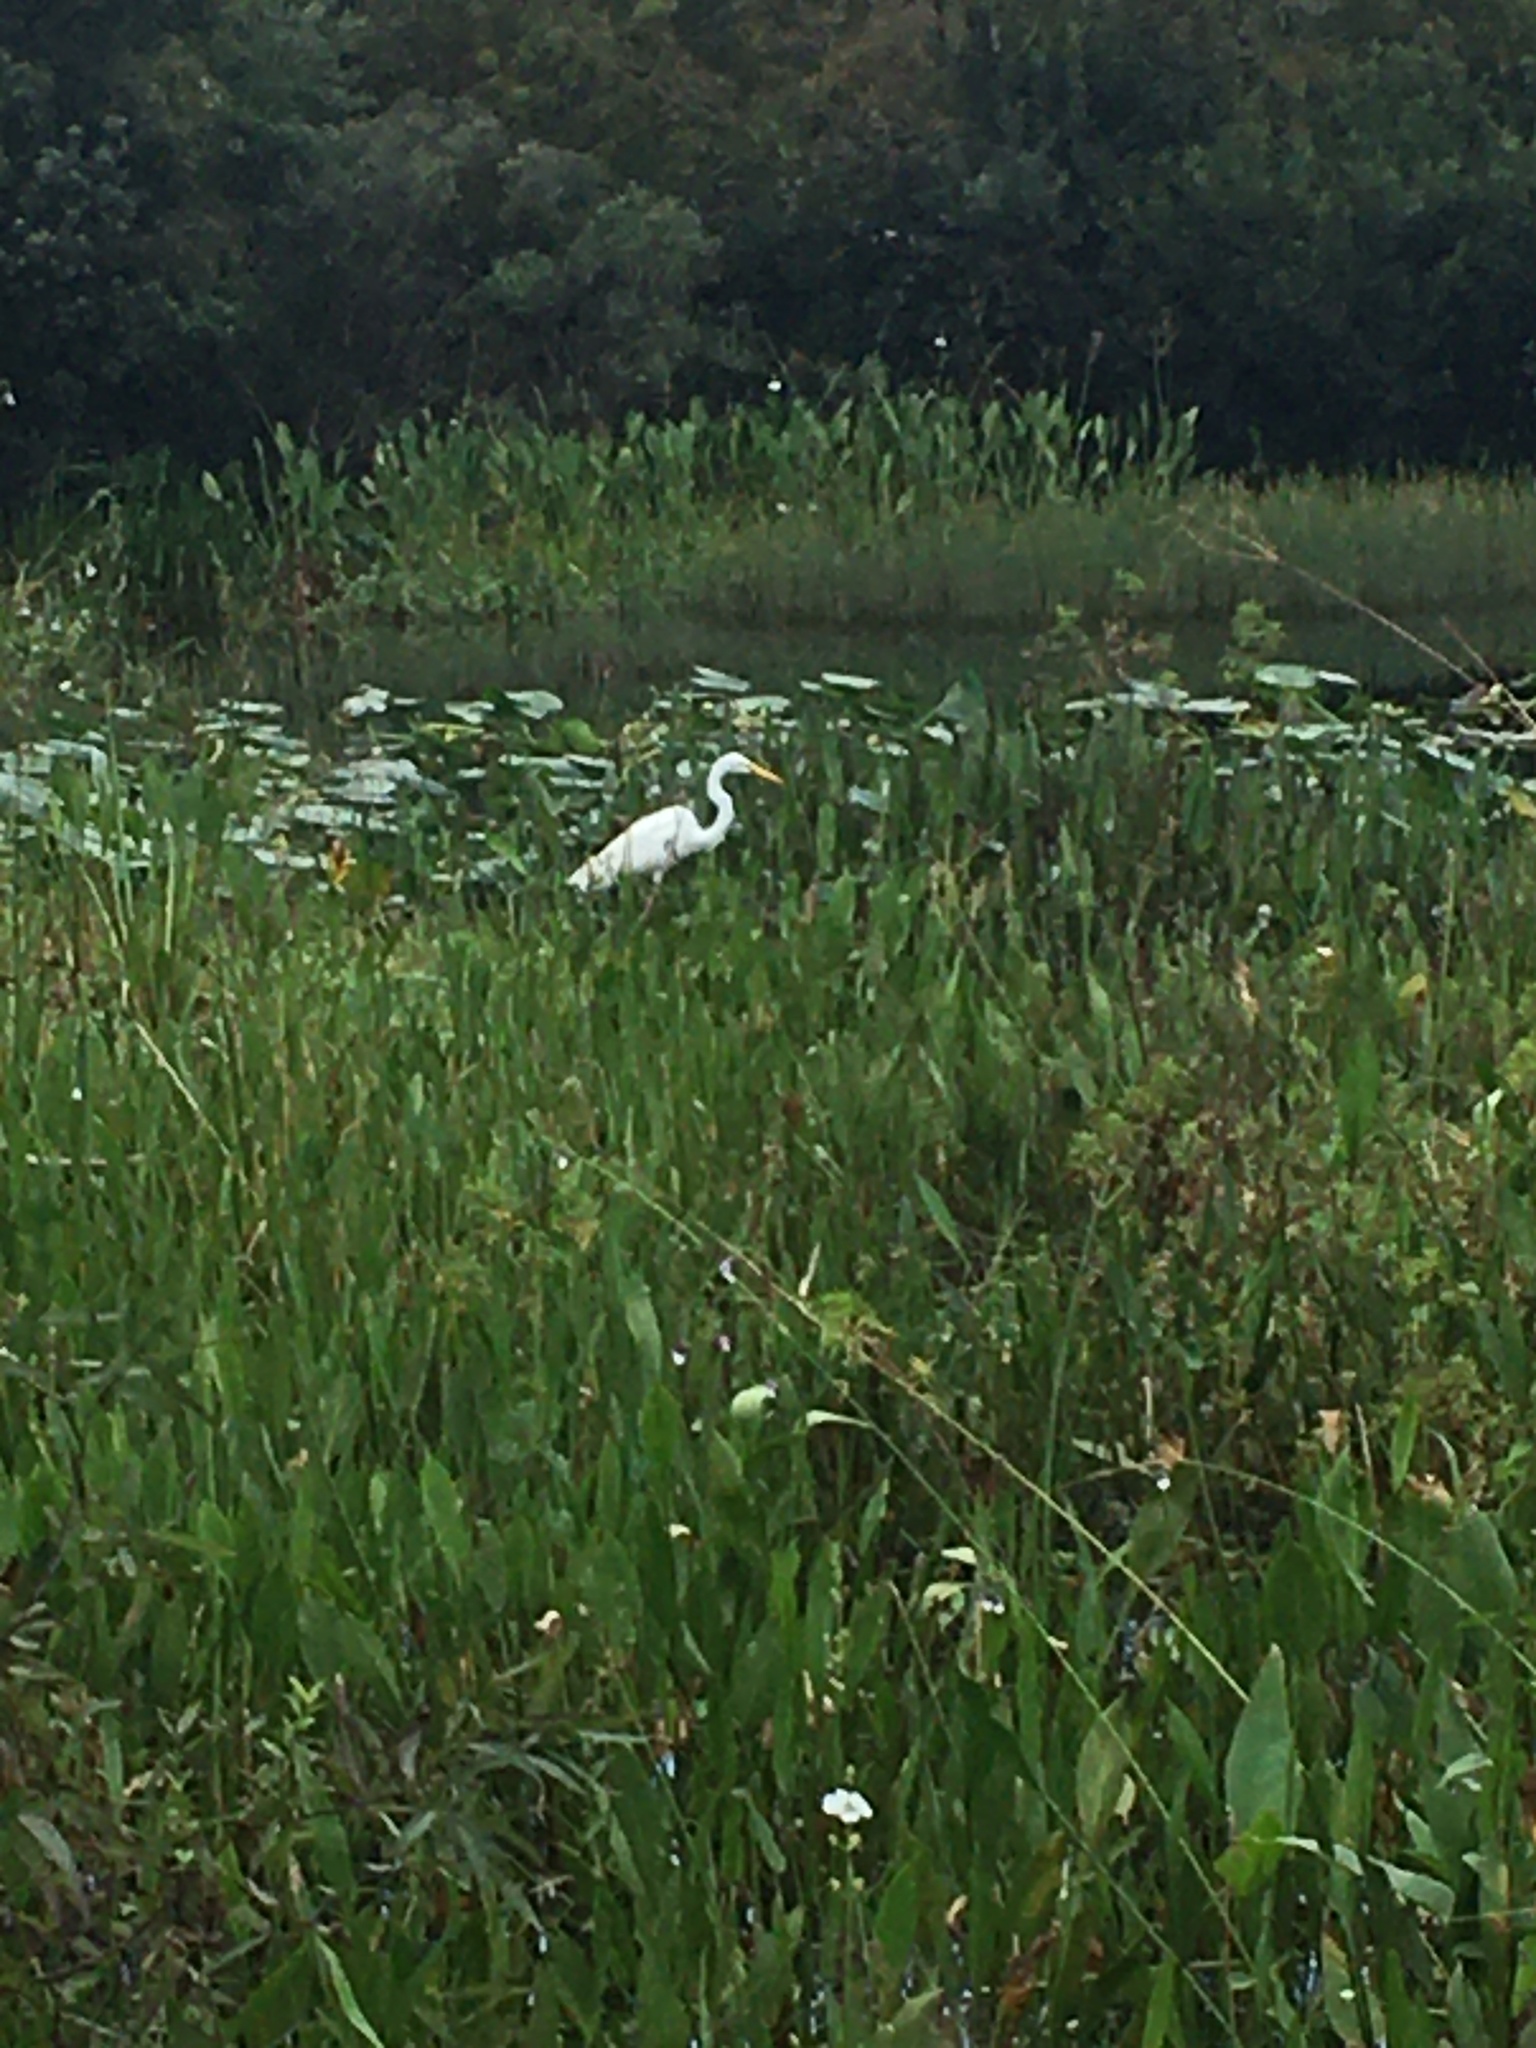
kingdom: Animalia
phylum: Chordata
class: Aves
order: Pelecaniformes
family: Ardeidae
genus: Ardea
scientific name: Ardea alba
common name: Great egret
